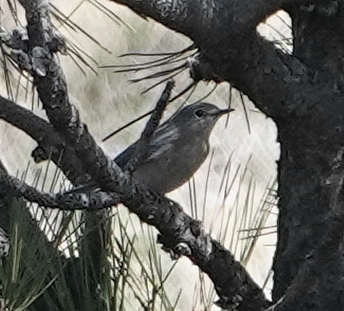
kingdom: Animalia
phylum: Chordata
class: Aves
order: Passeriformes
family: Turdidae
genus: Sialia
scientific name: Sialia currucoides
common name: Mountain bluebird
